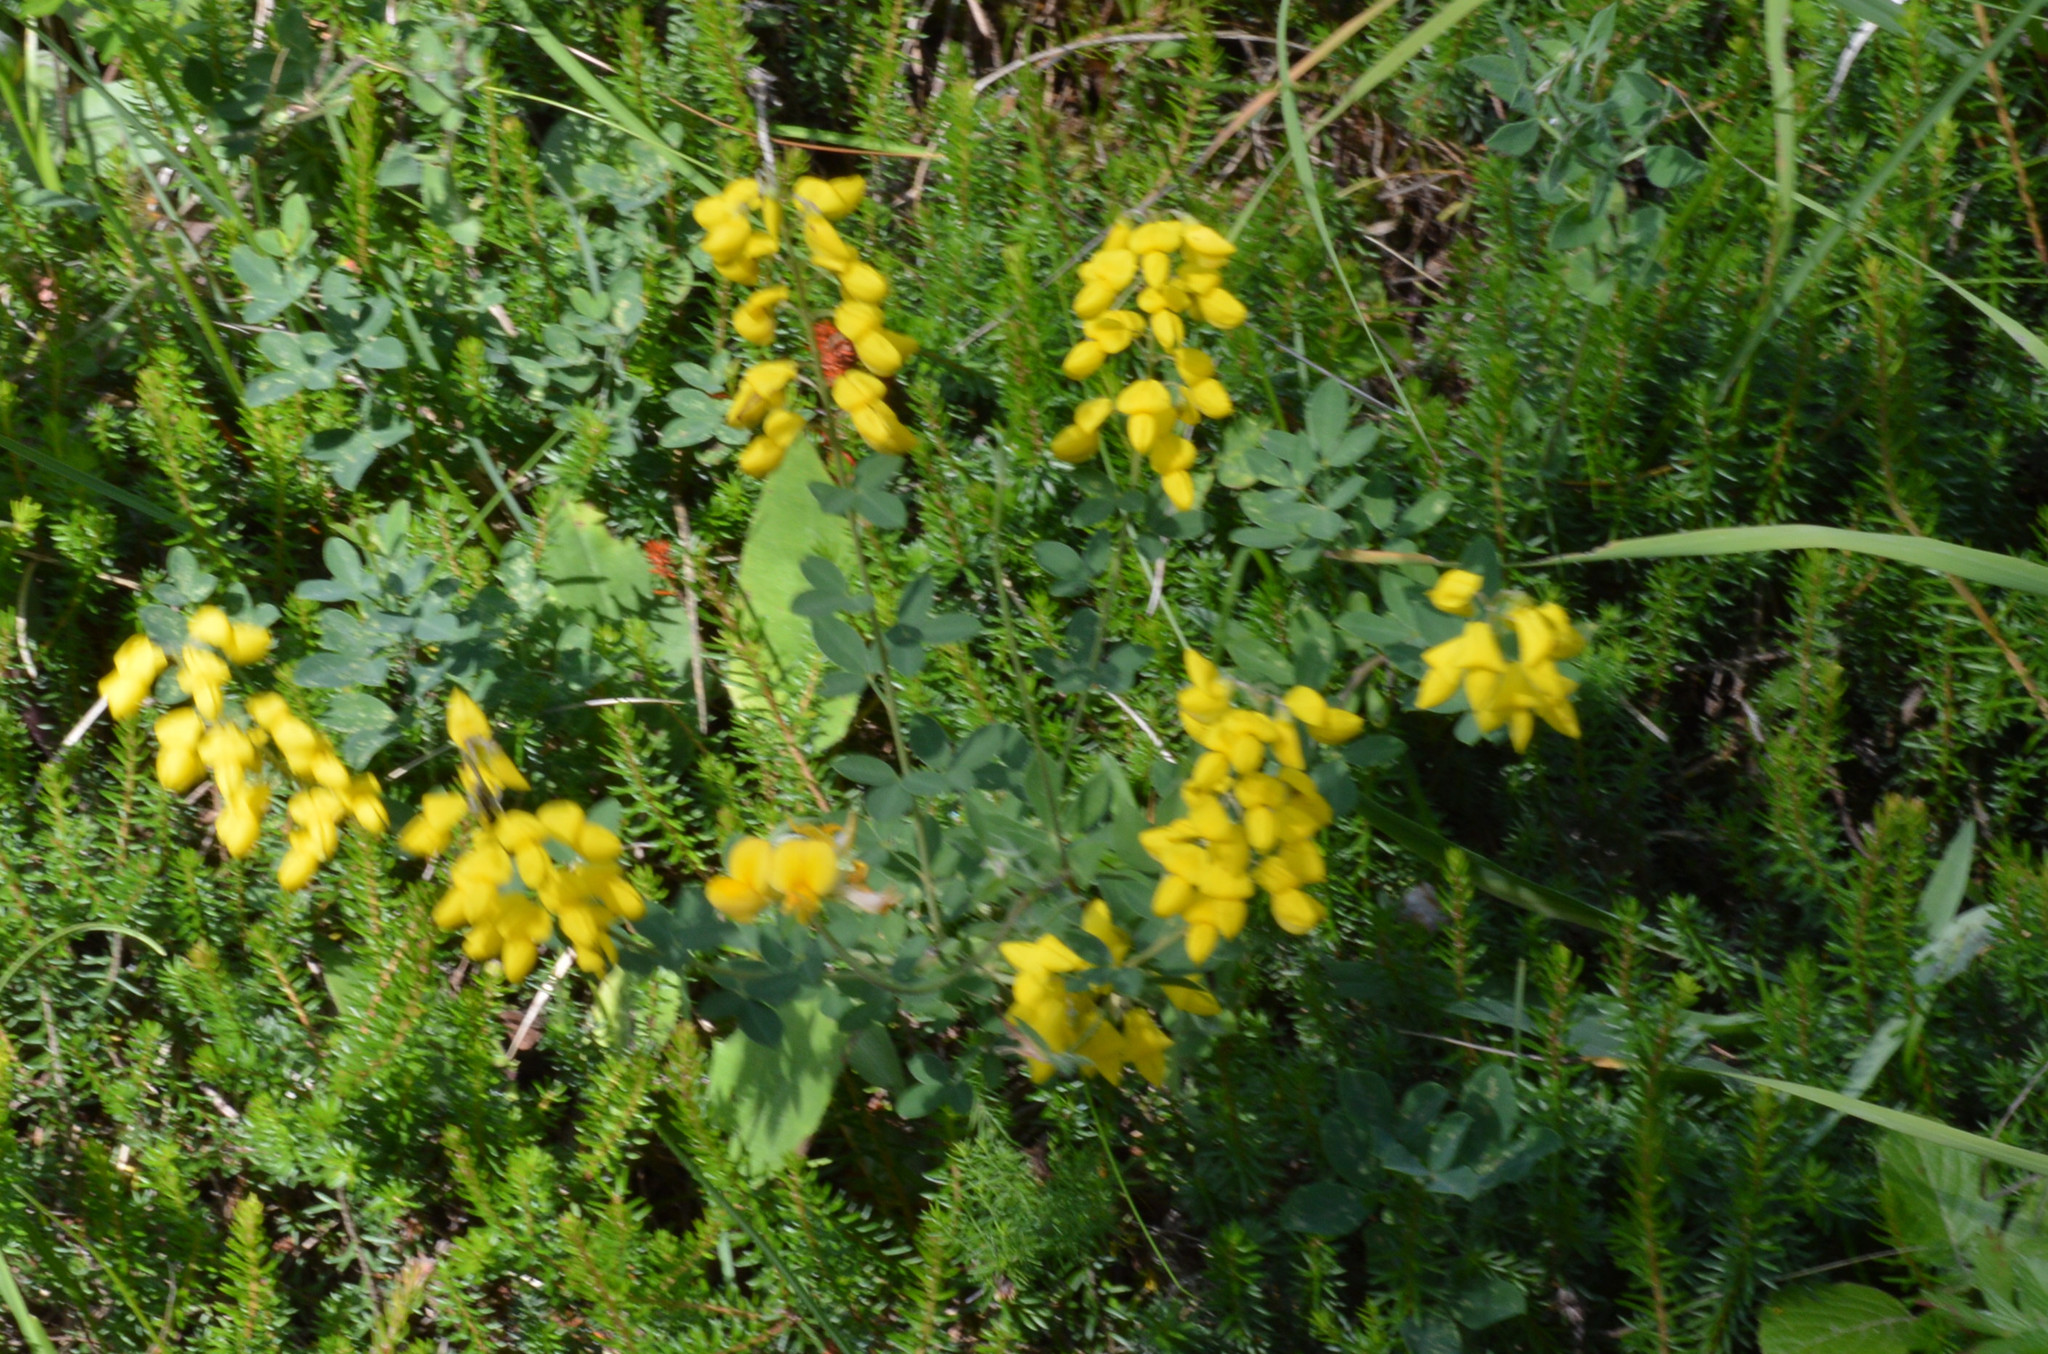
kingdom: Plantae
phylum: Tracheophyta
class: Magnoliopsida
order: Fabales
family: Fabaceae
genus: Cytisus
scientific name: Cytisus nigricans
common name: Black broom
